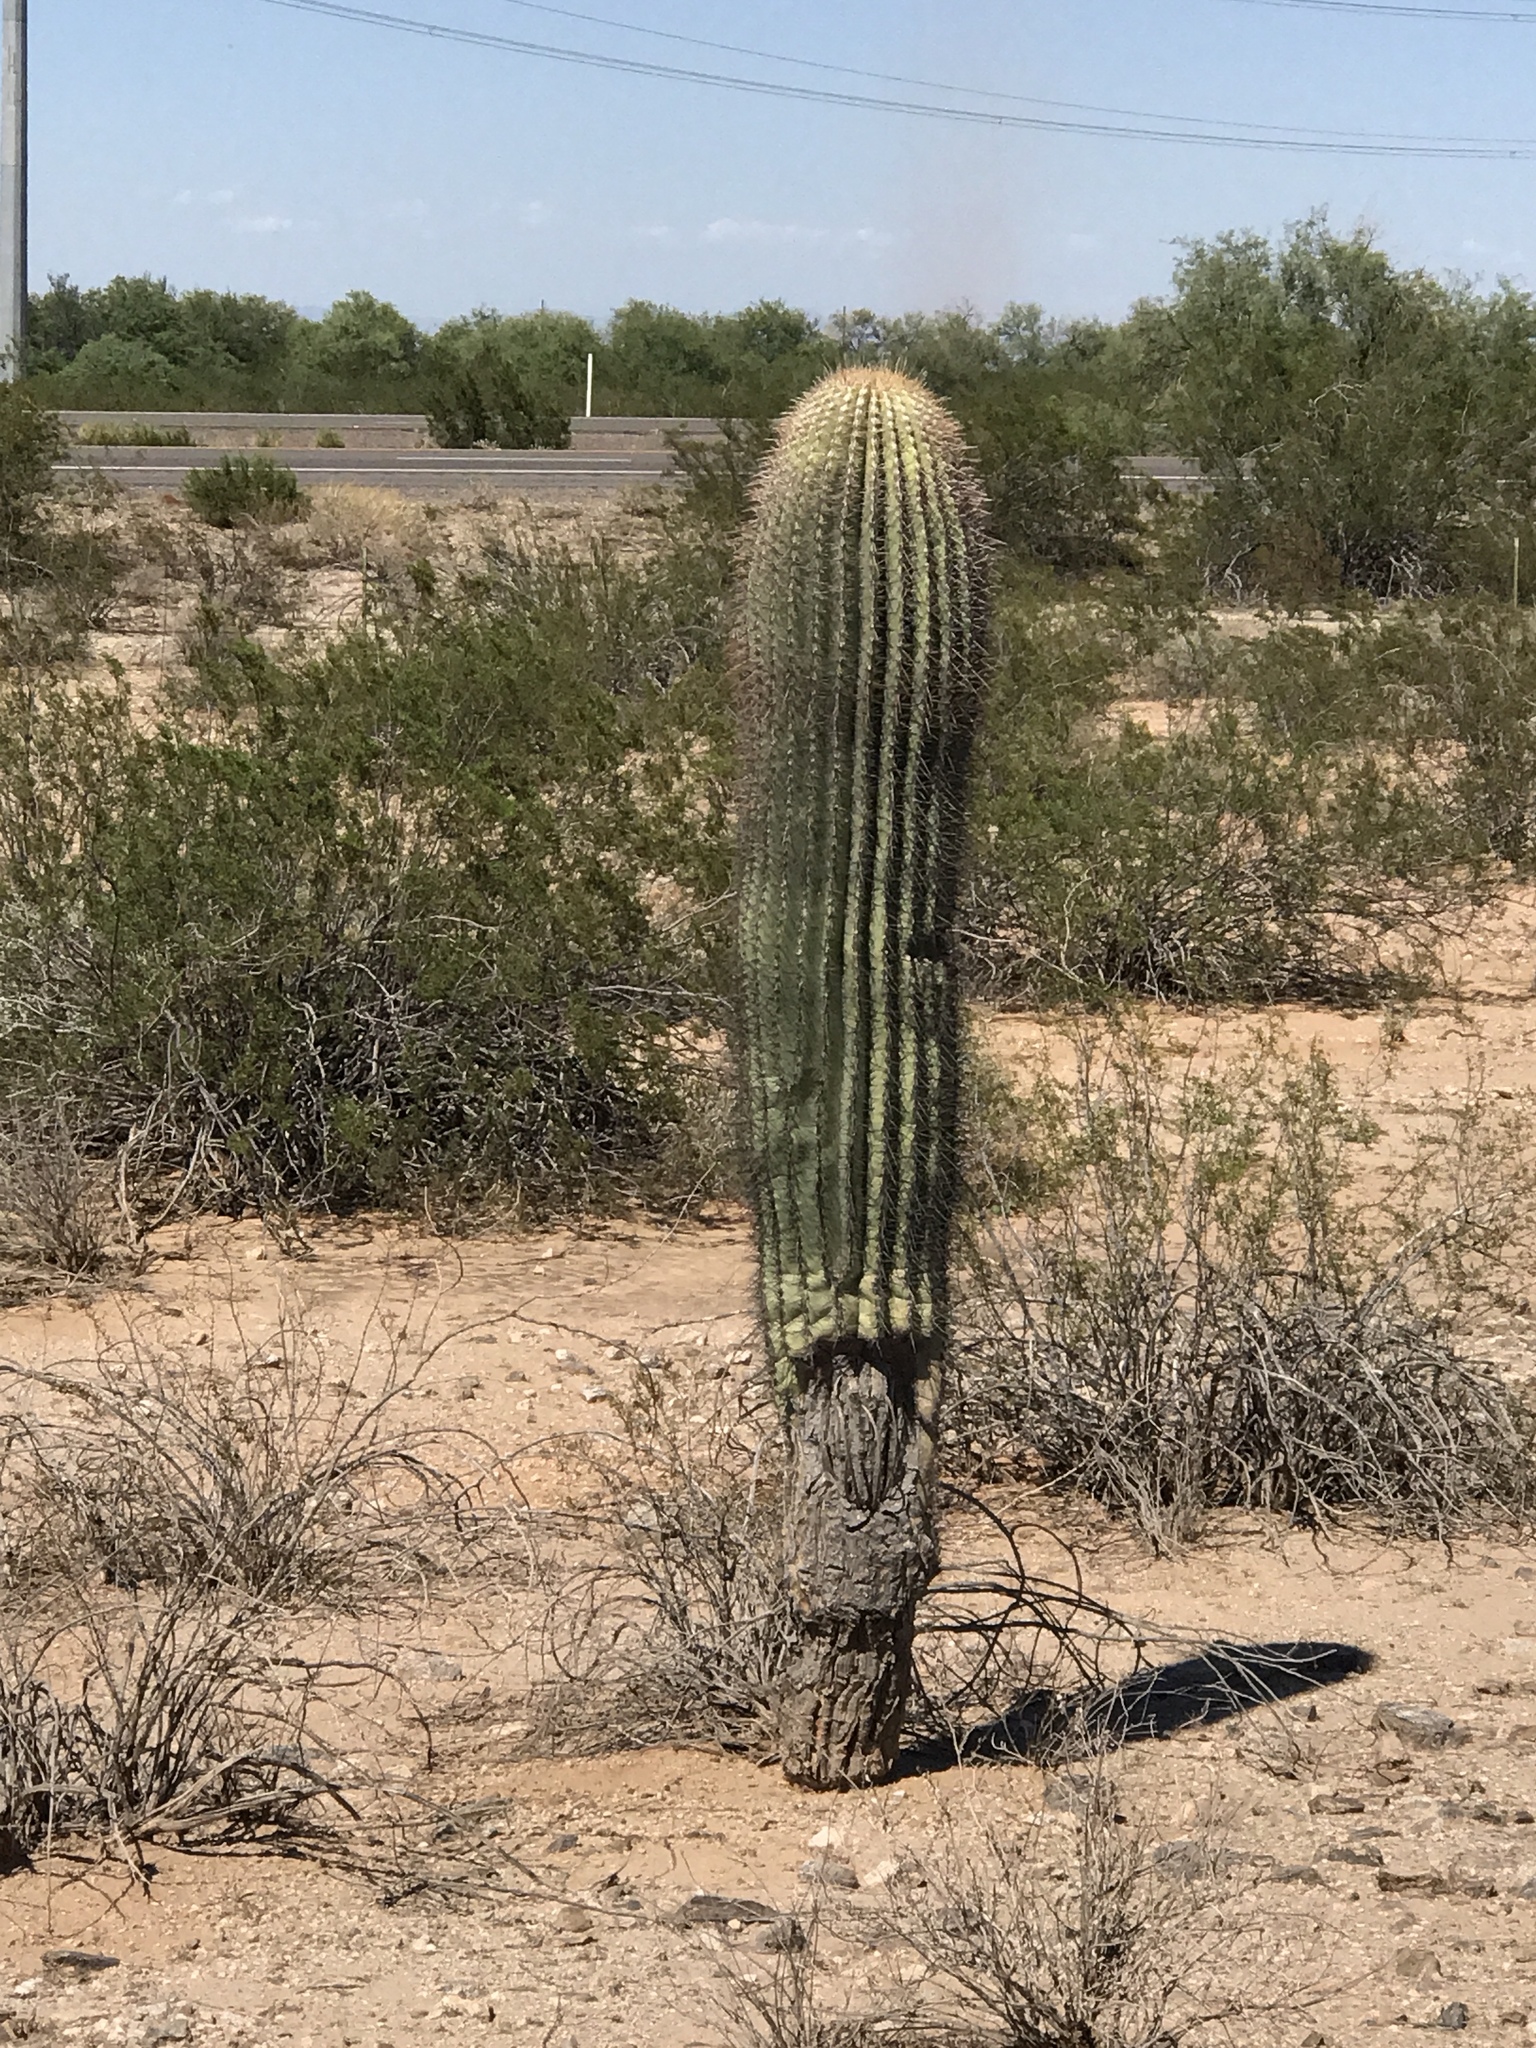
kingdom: Plantae
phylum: Tracheophyta
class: Magnoliopsida
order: Caryophyllales
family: Cactaceae
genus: Carnegiea
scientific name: Carnegiea gigantea
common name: Saguaro
